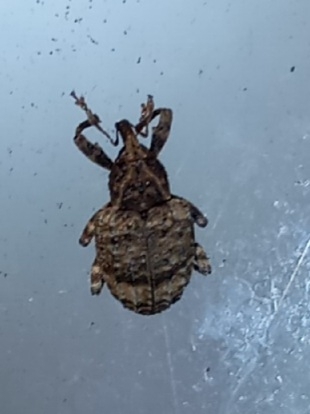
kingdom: Animalia
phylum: Arthropoda
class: Insecta
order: Coleoptera
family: Curculionidae
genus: Conotrachelus
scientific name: Conotrachelus seniculus
